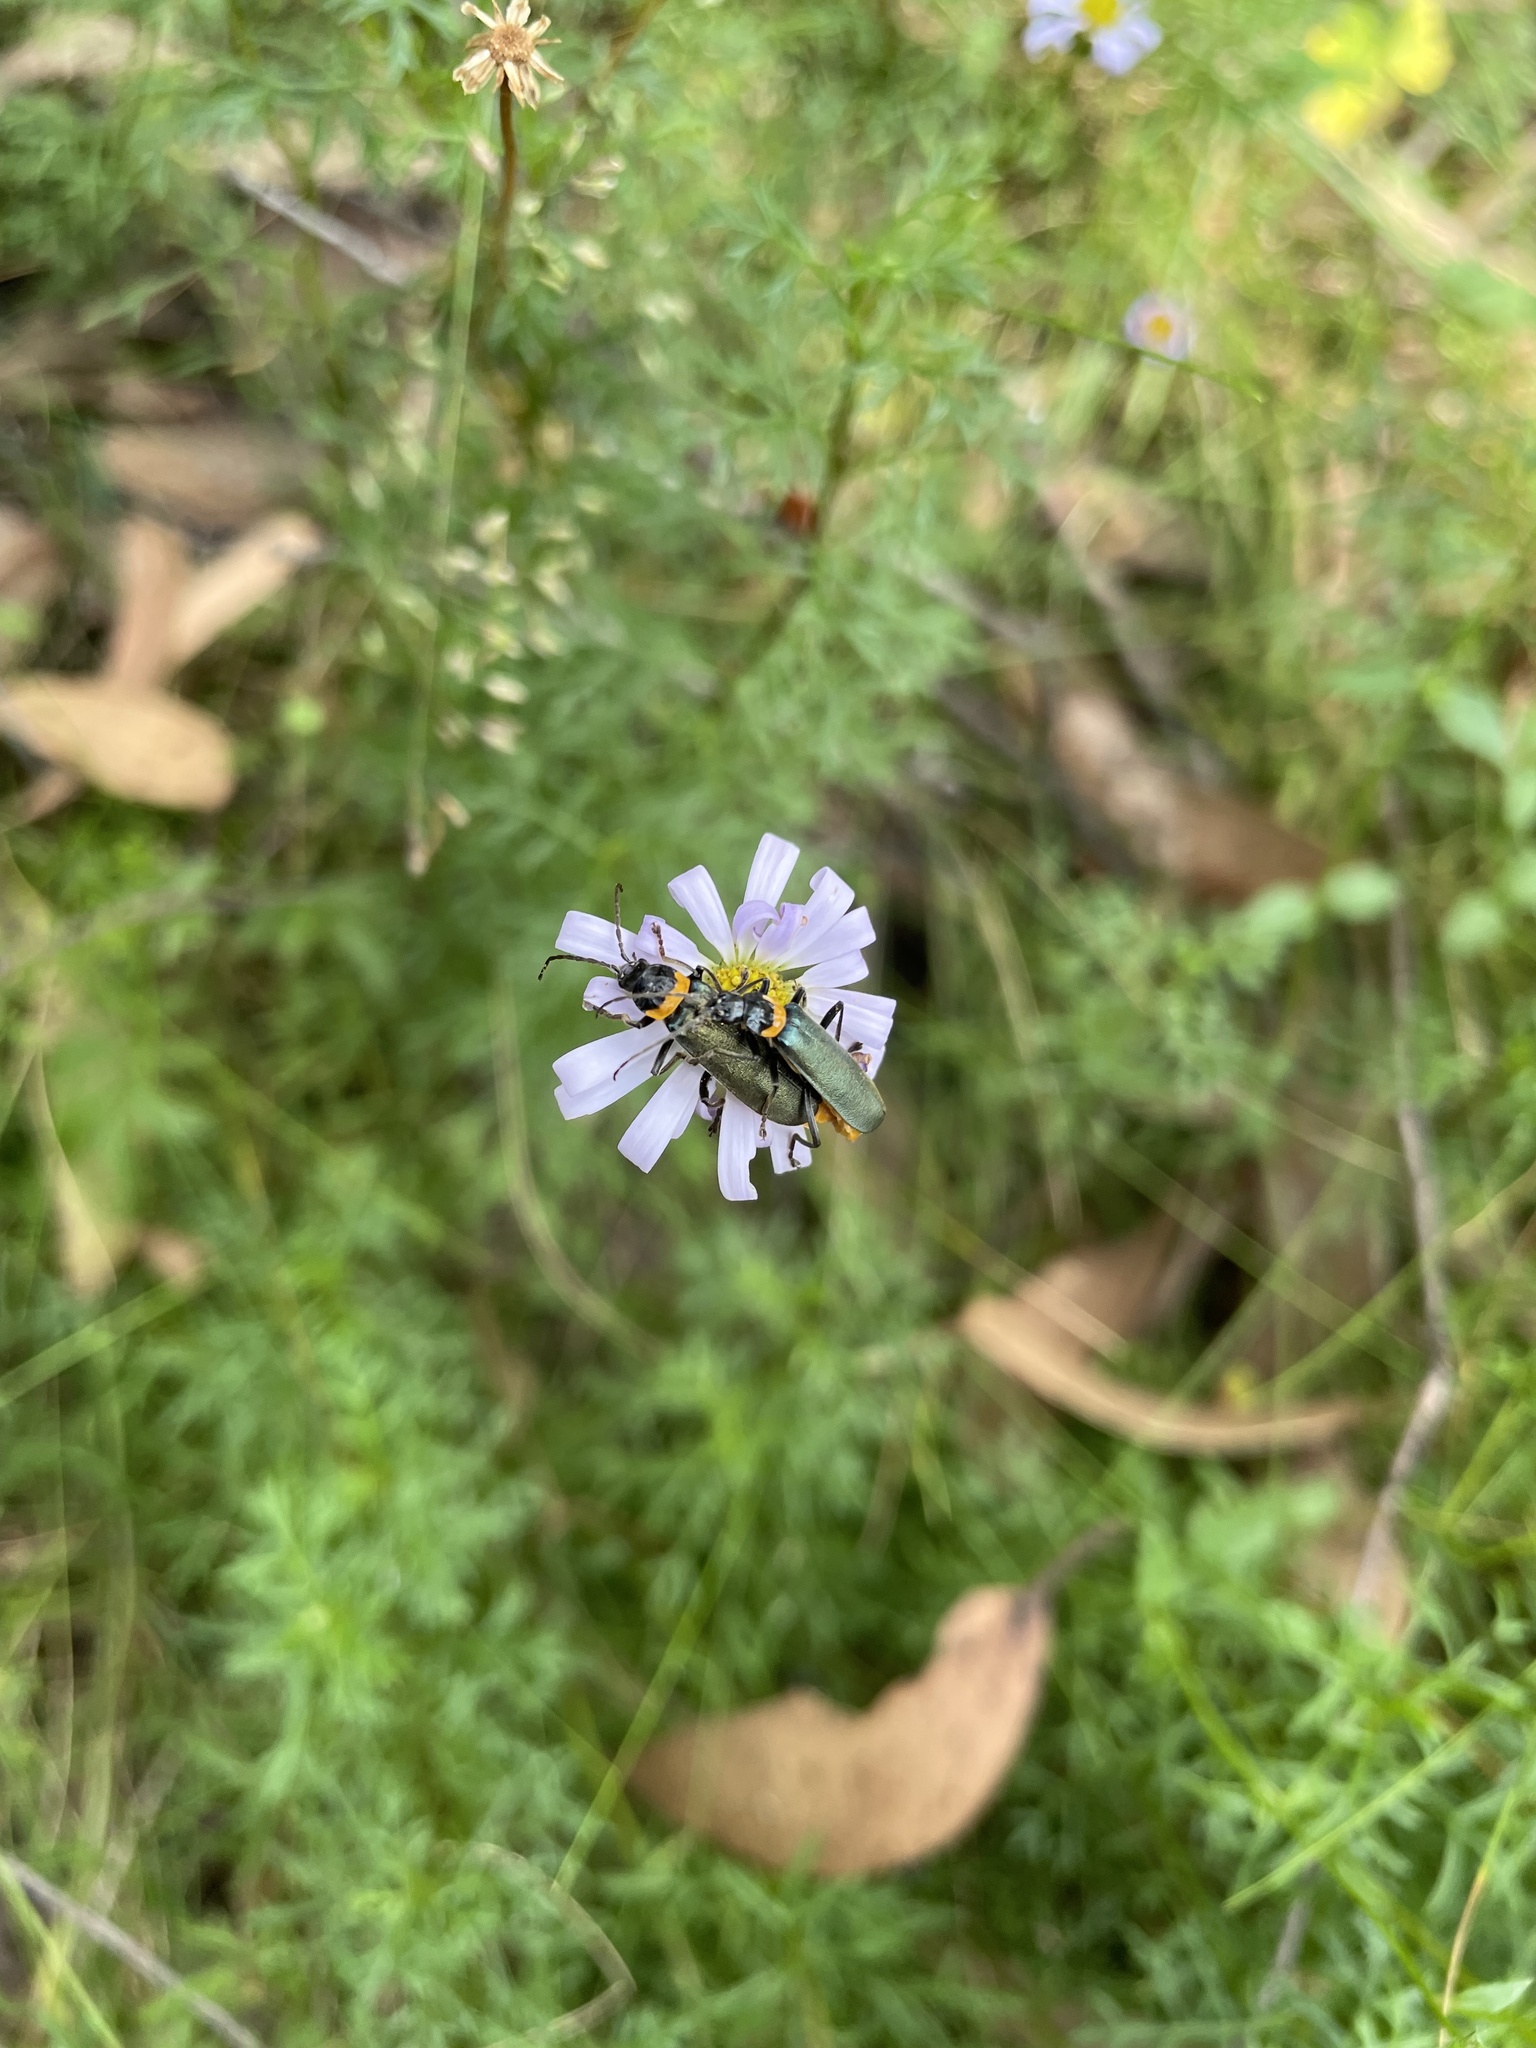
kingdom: Animalia
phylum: Arthropoda
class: Insecta
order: Coleoptera
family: Cantharidae
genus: Chauliognathus
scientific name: Chauliognathus
